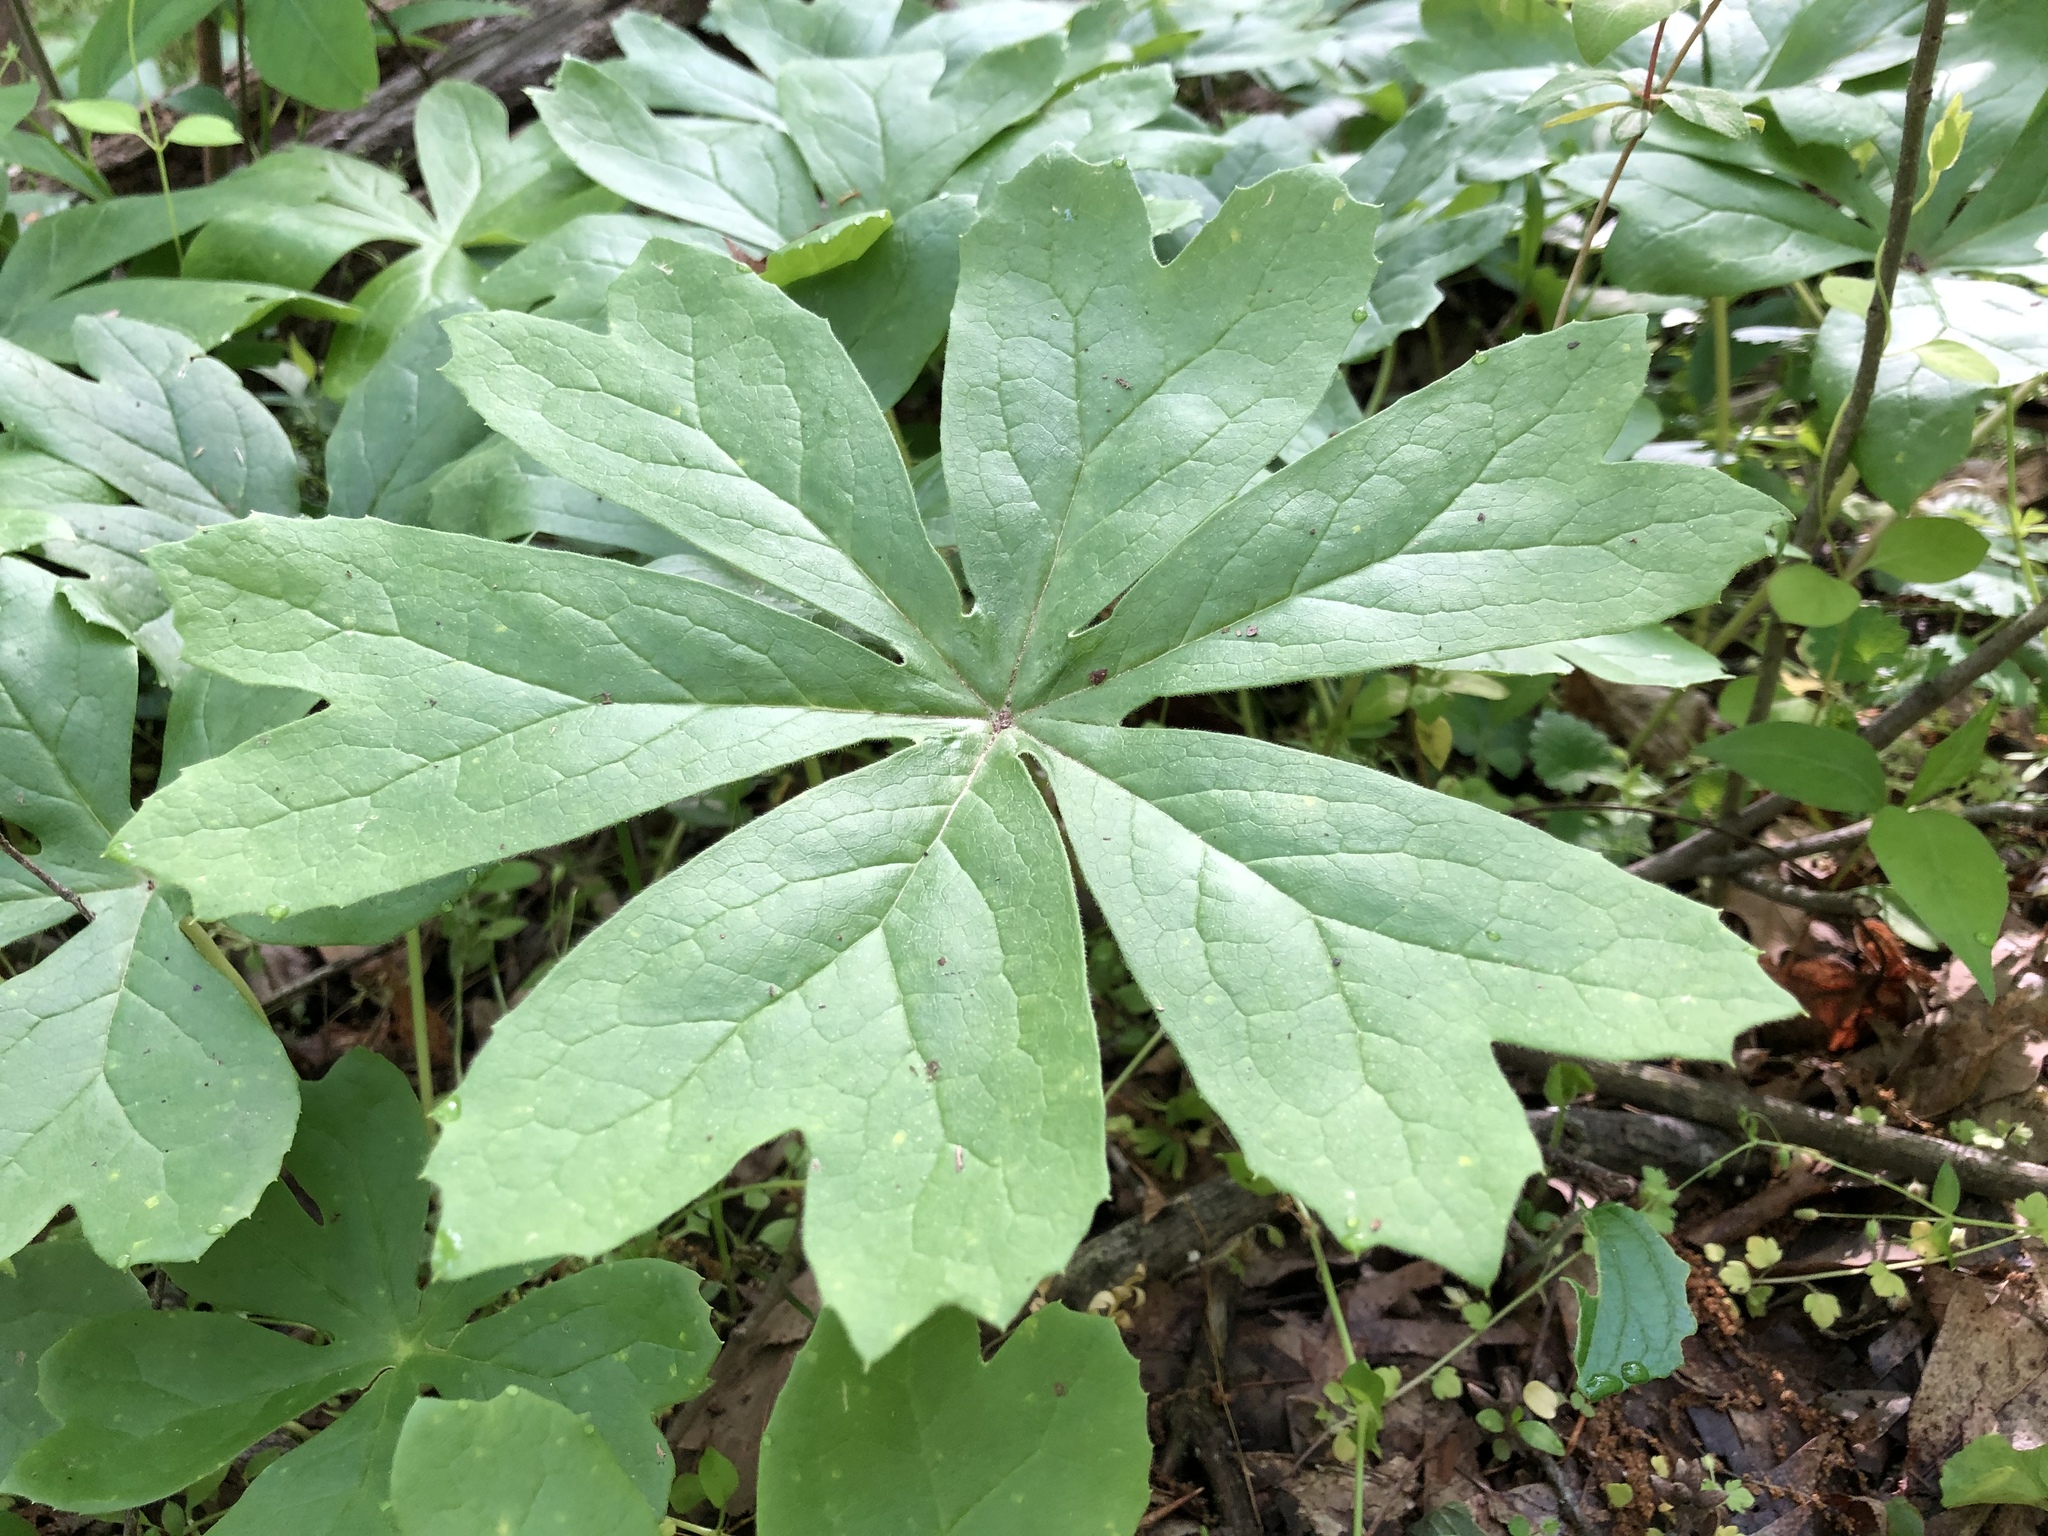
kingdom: Plantae
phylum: Tracheophyta
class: Magnoliopsida
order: Ranunculales
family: Berberidaceae
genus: Podophyllum
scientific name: Podophyllum peltatum
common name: Wild mandrake
